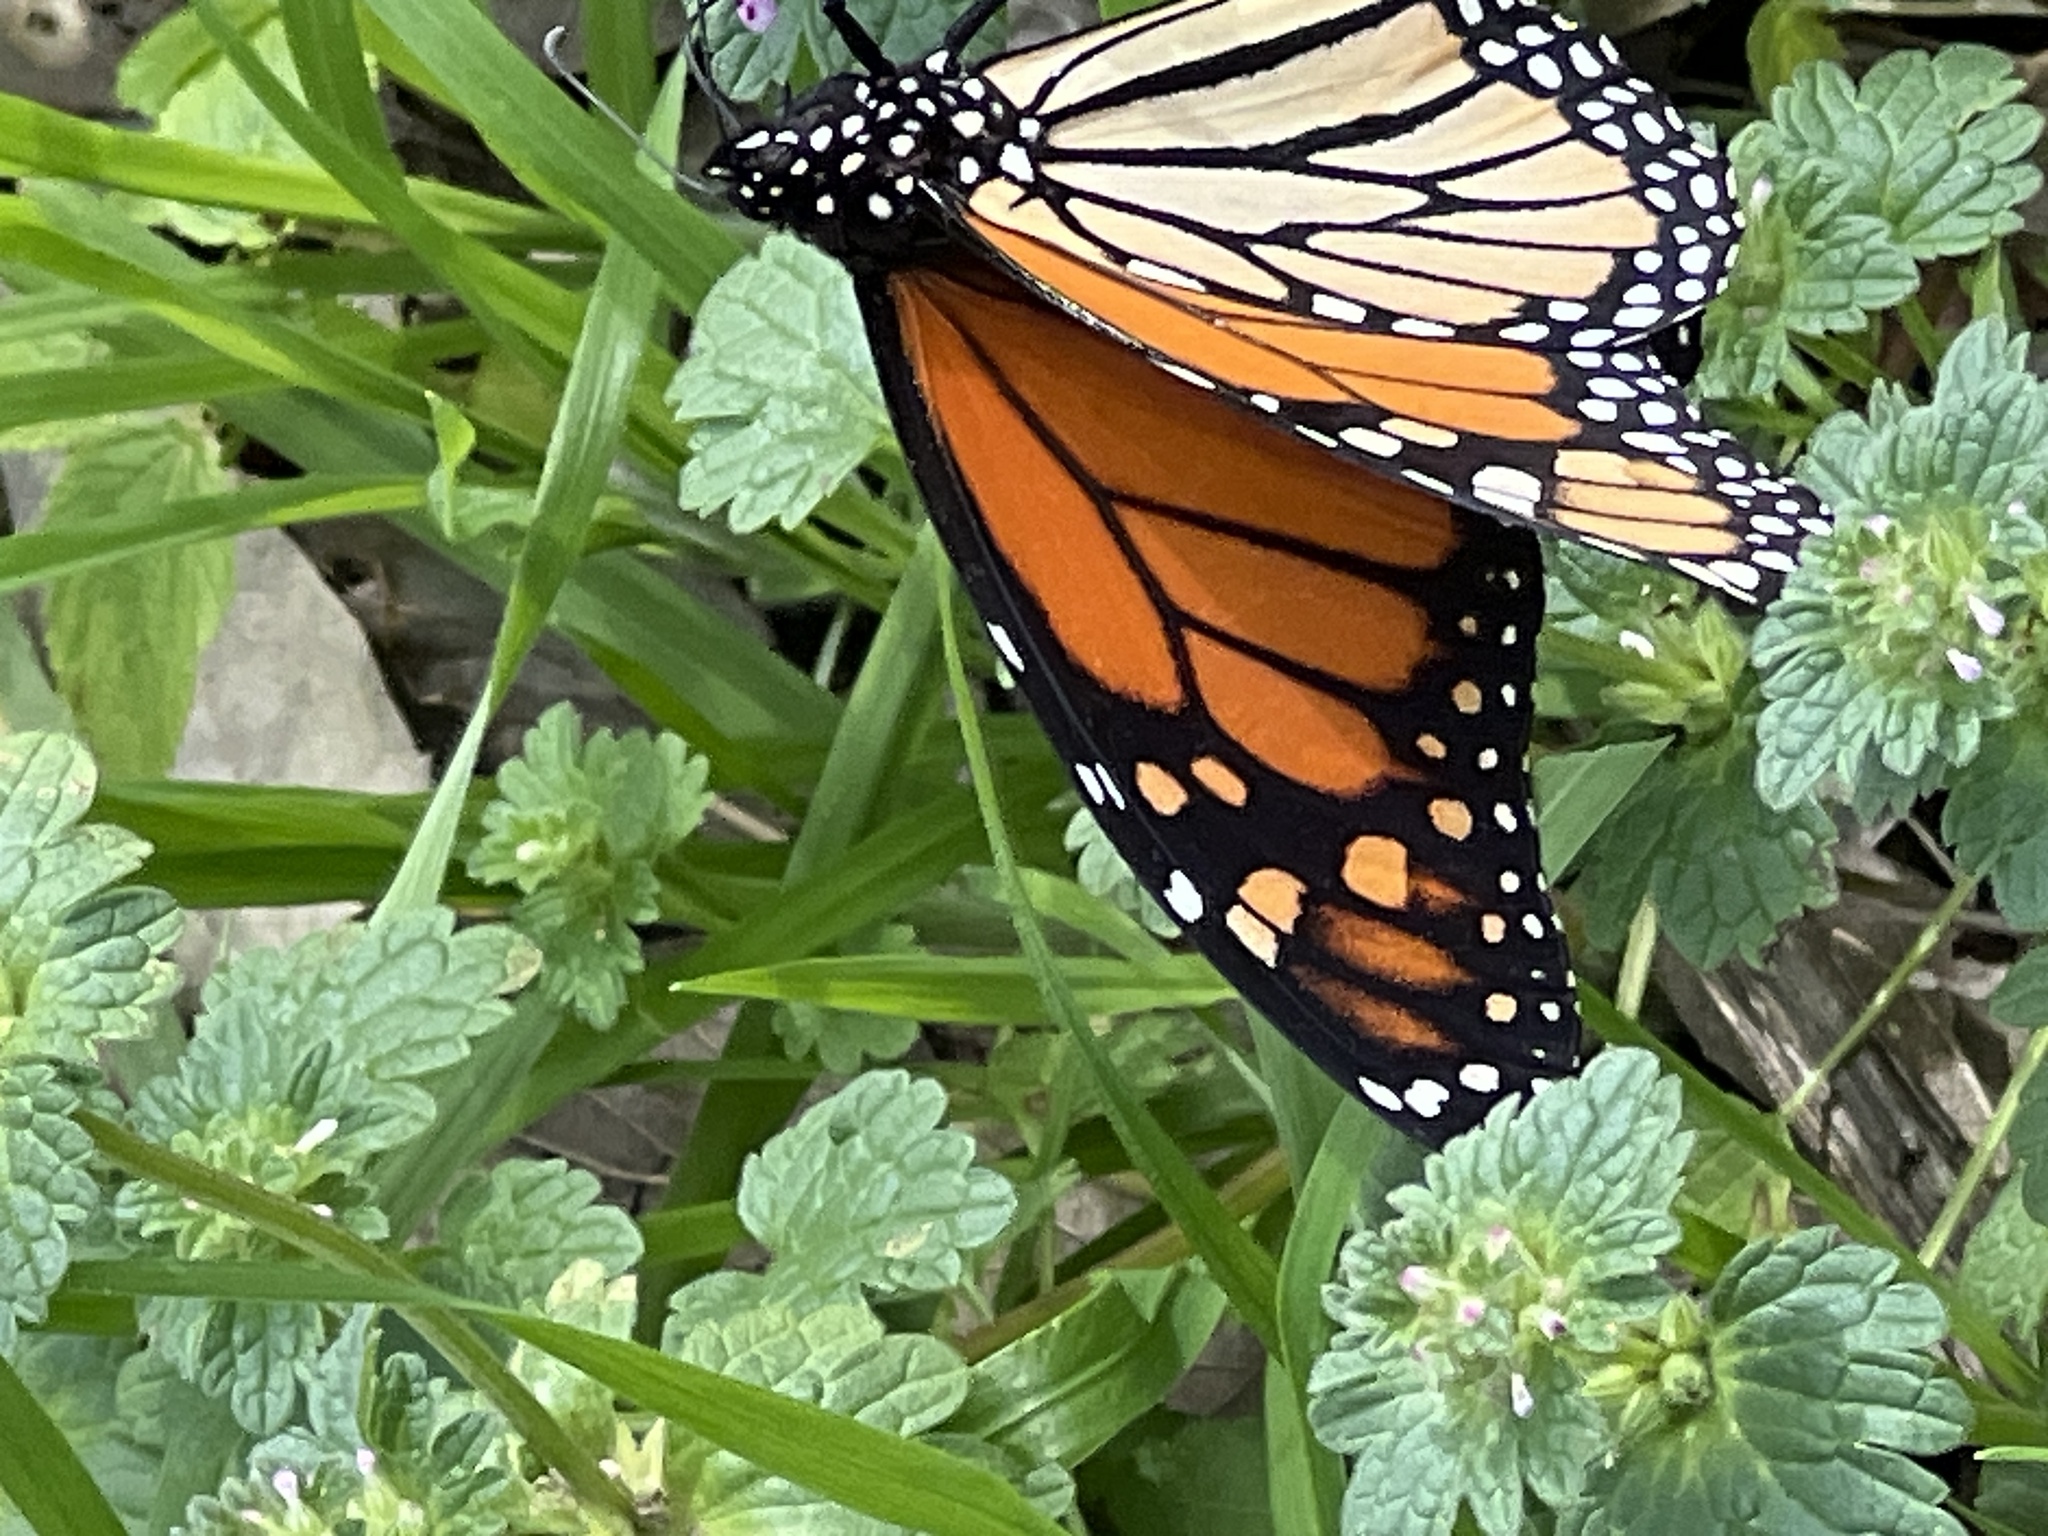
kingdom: Animalia
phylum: Arthropoda
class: Insecta
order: Lepidoptera
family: Nymphalidae
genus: Danaus
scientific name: Danaus plexippus
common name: Monarch
